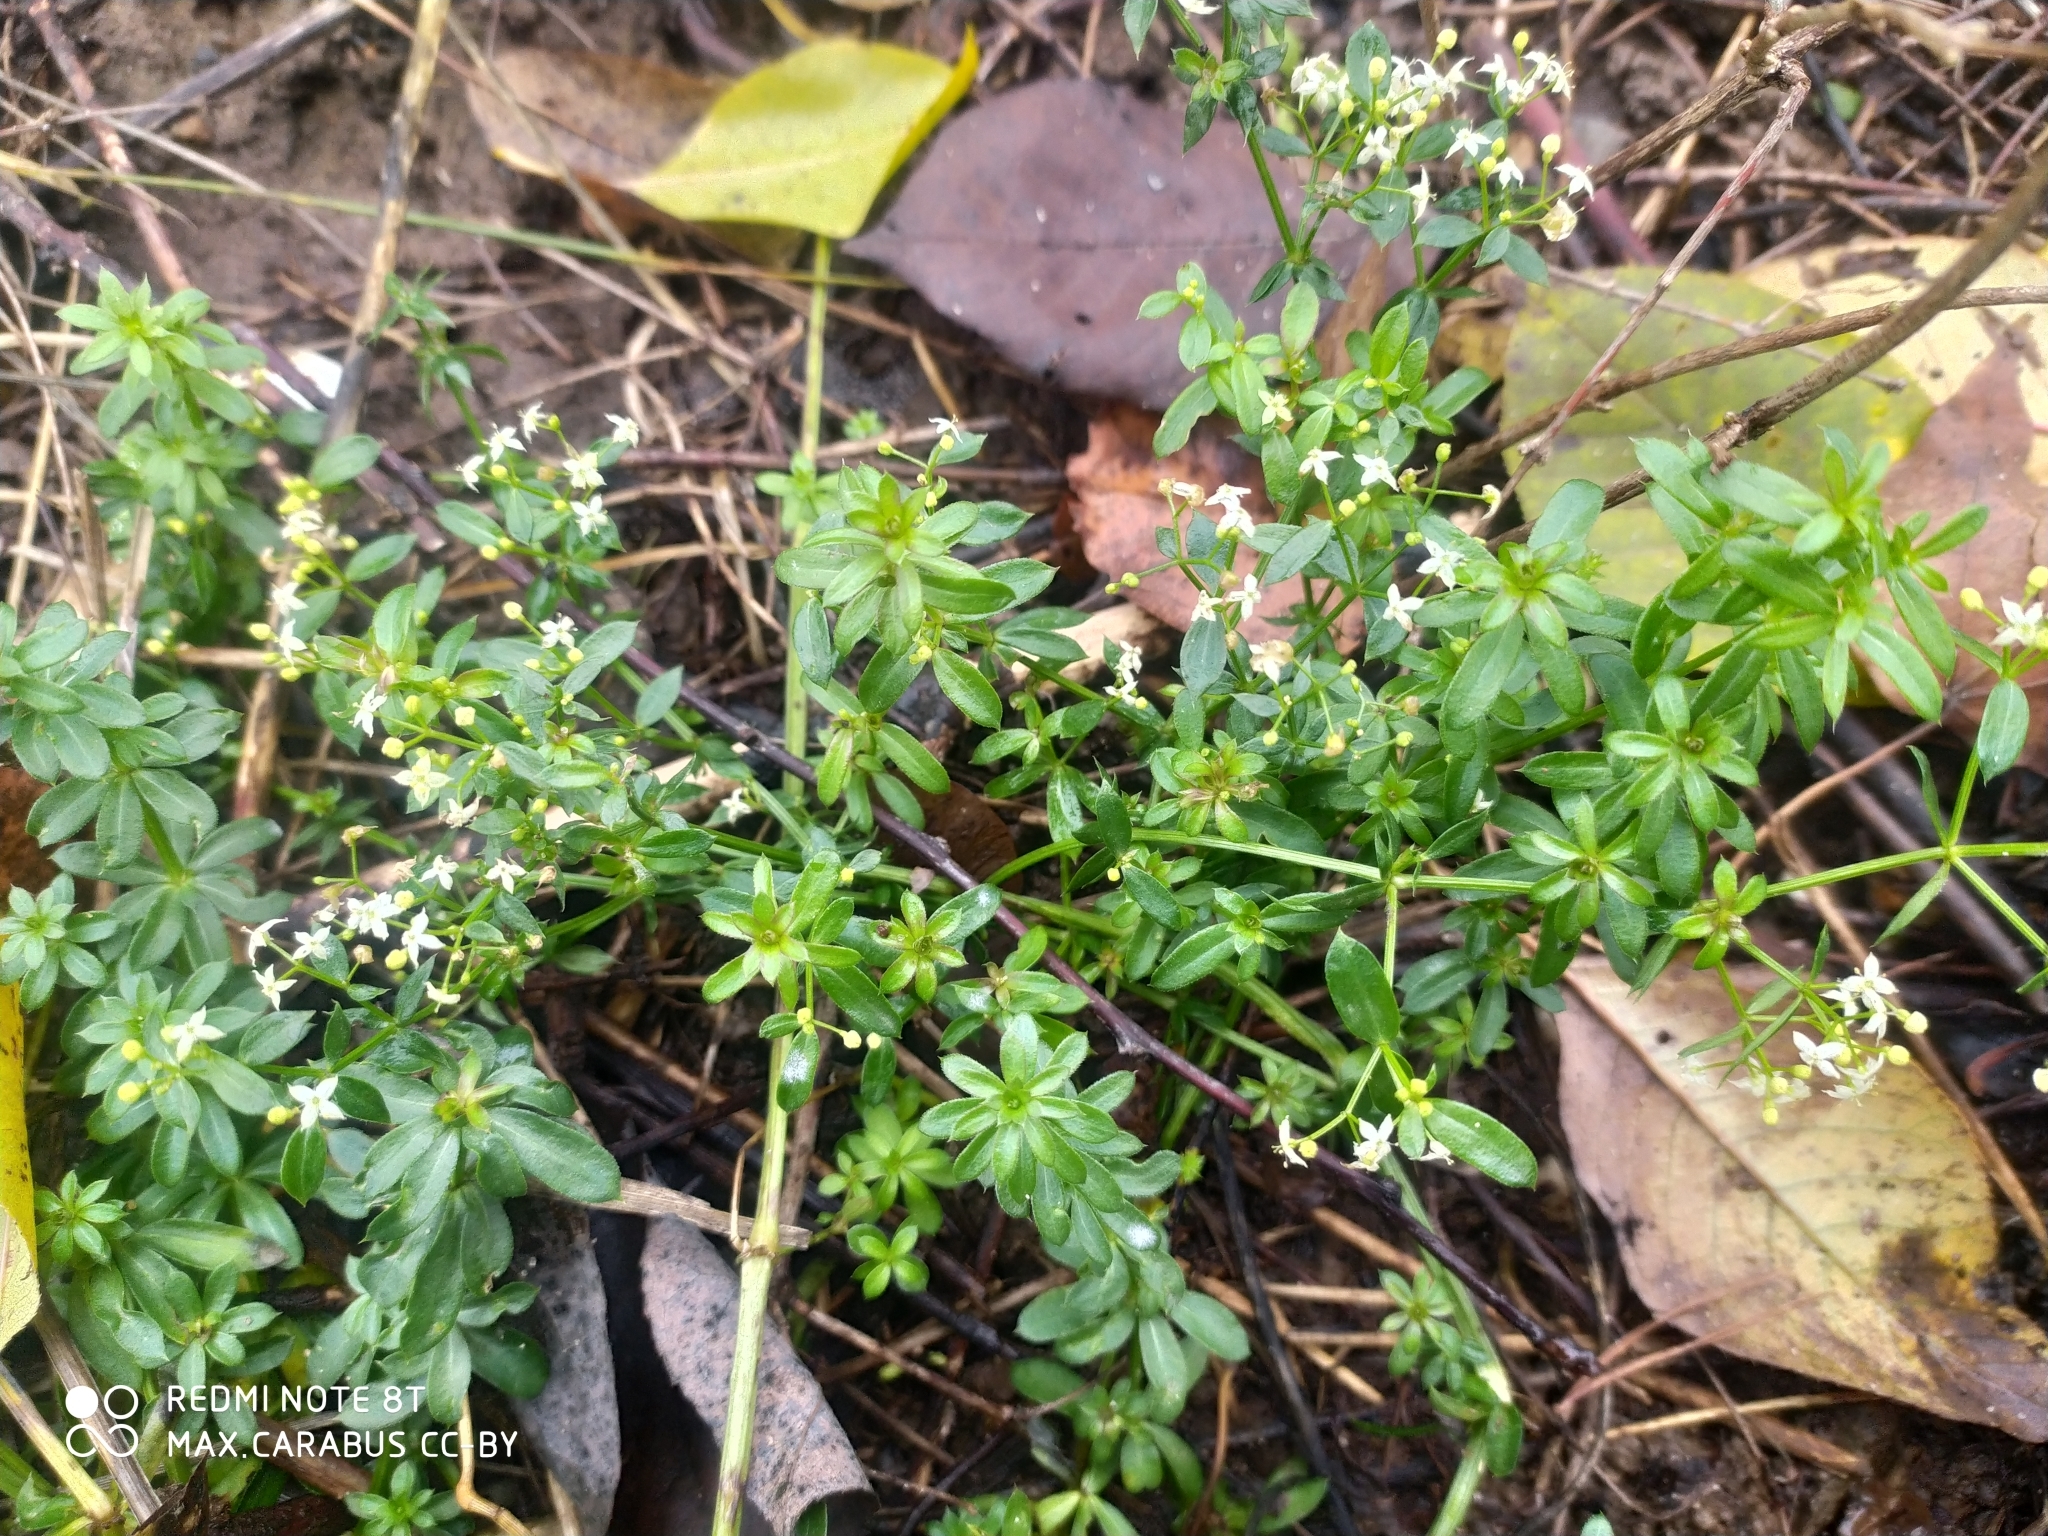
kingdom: Plantae
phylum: Tracheophyta
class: Magnoliopsida
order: Gentianales
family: Rubiaceae
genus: Galium
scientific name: Galium mollugo
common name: Hedge bedstraw
